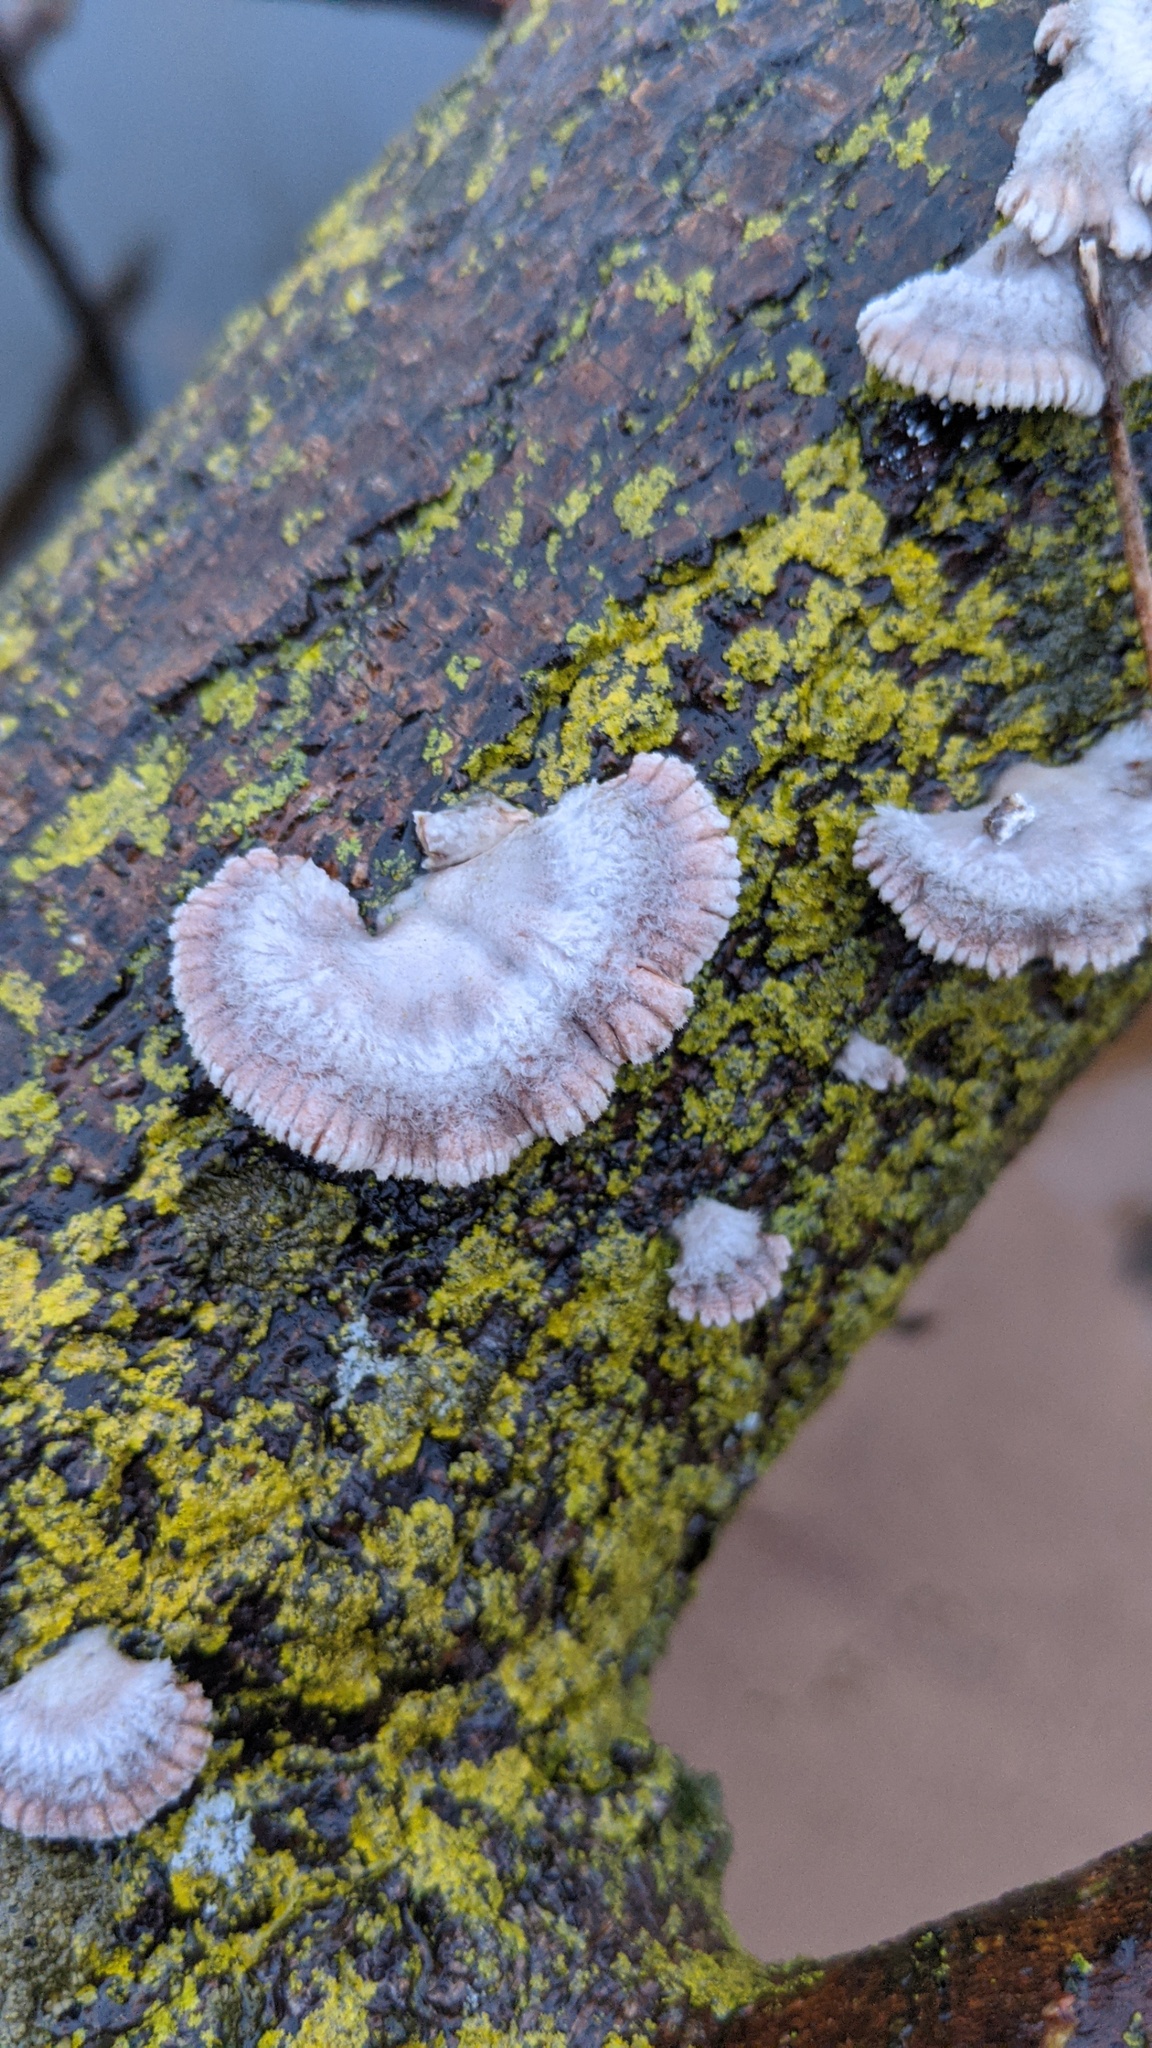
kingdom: Fungi
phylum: Basidiomycota
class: Agaricomycetes
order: Agaricales
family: Schizophyllaceae
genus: Schizophyllum
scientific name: Schizophyllum commune
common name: Common porecrust
